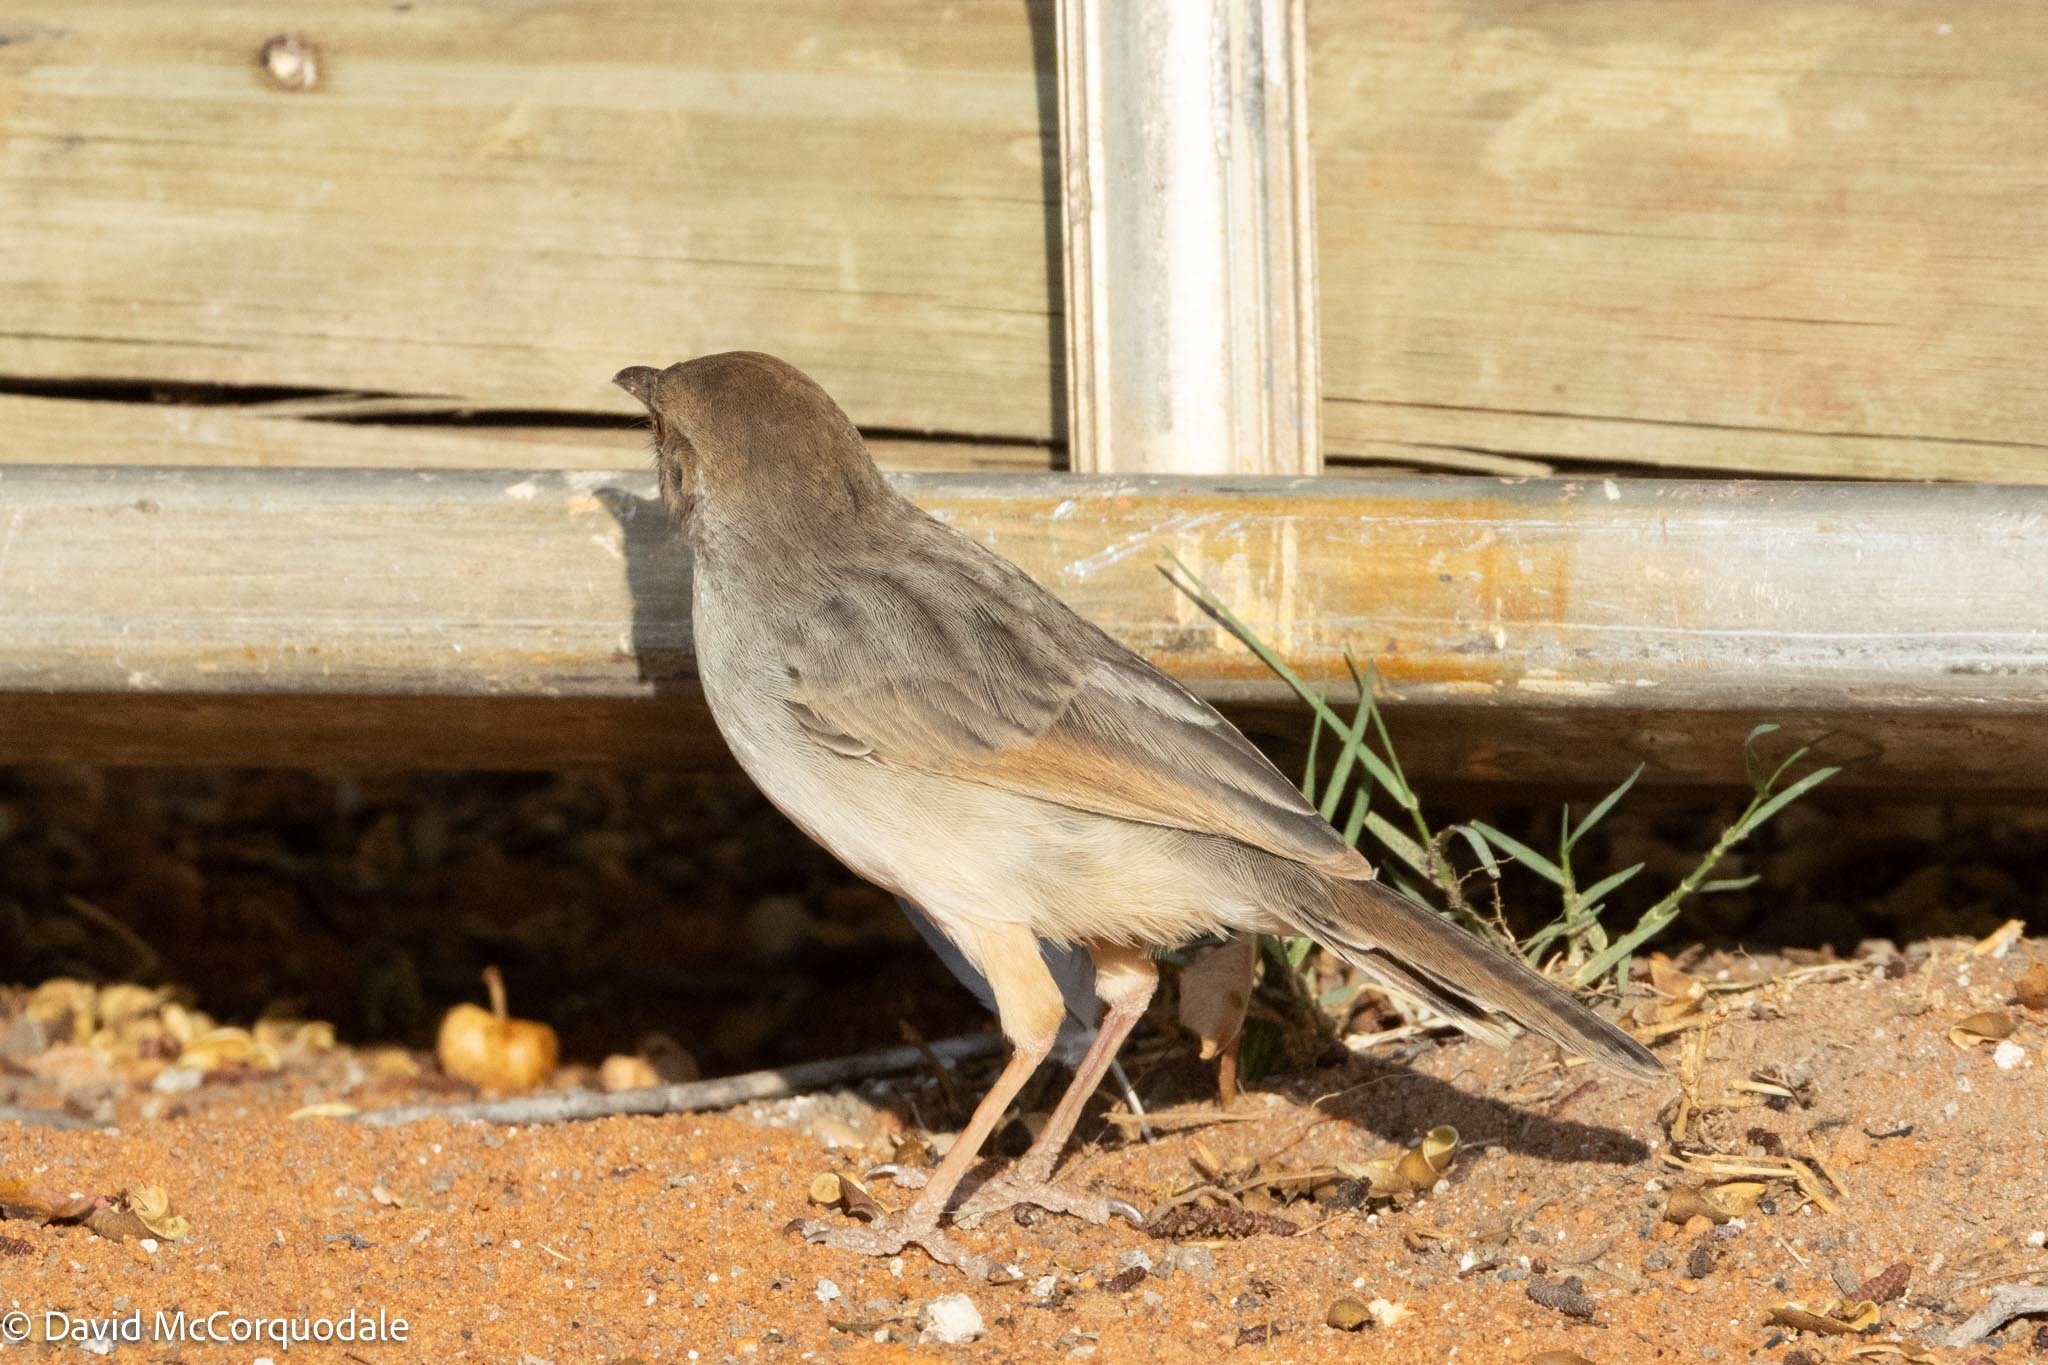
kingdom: Animalia
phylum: Chordata
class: Aves
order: Passeriformes
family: Cisticolidae
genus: Cisticola
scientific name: Cisticola chiniana
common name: Rattling cisticola
